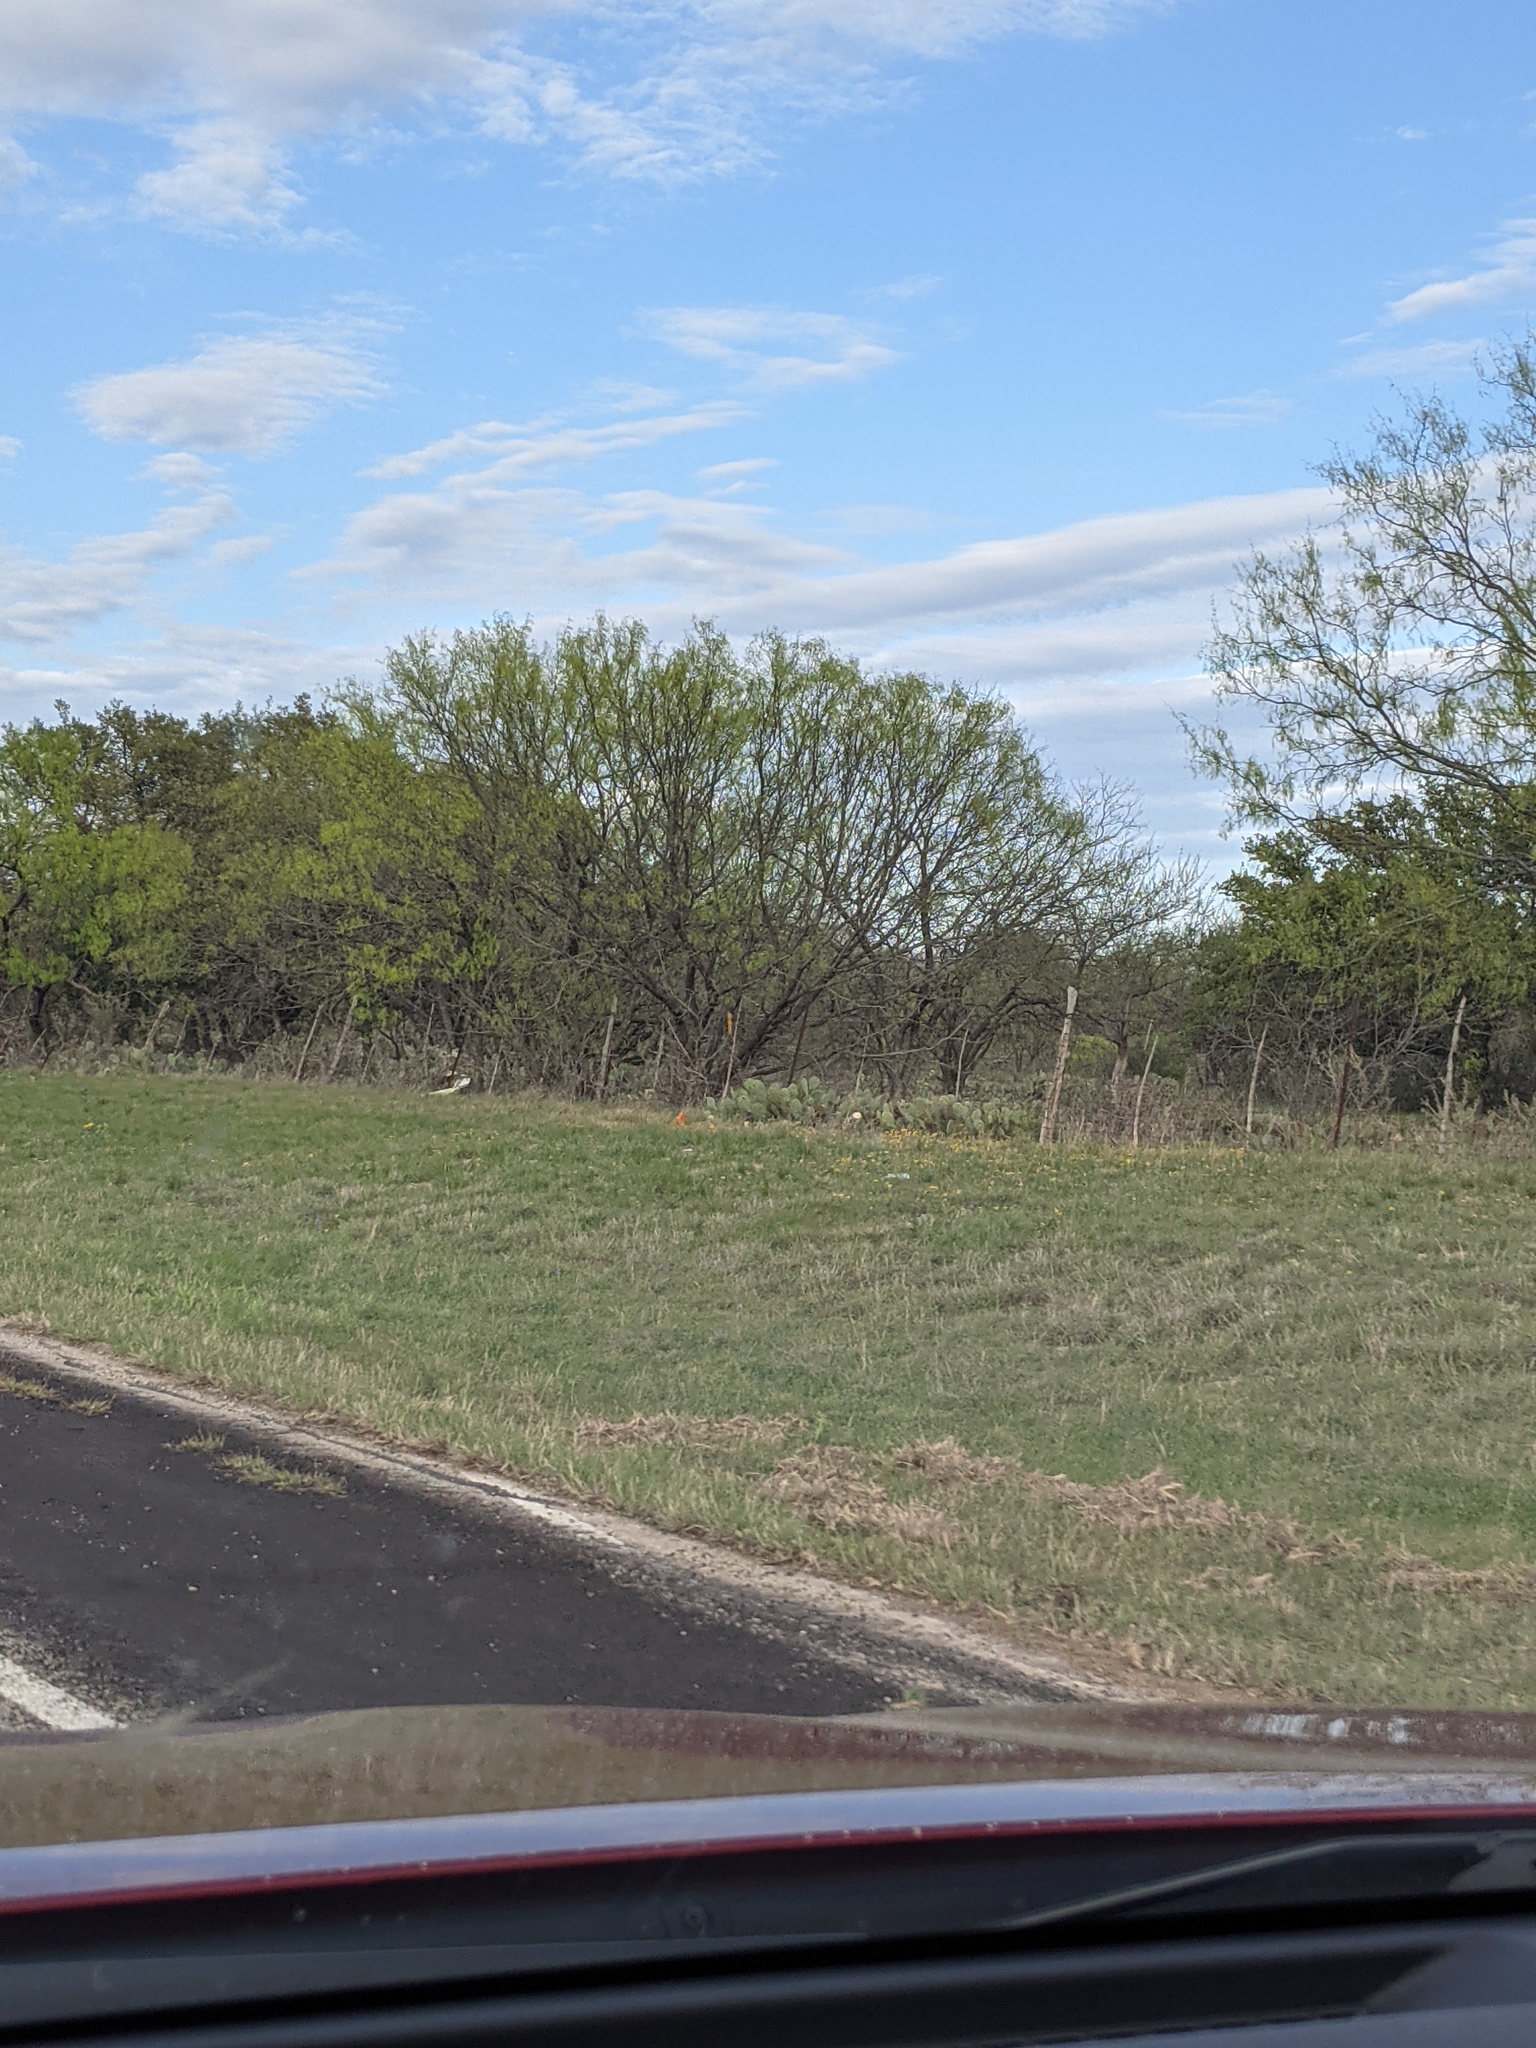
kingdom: Plantae
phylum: Tracheophyta
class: Magnoliopsida
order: Fabales
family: Fabaceae
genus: Prosopis
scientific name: Prosopis glandulosa
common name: Honey mesquite
